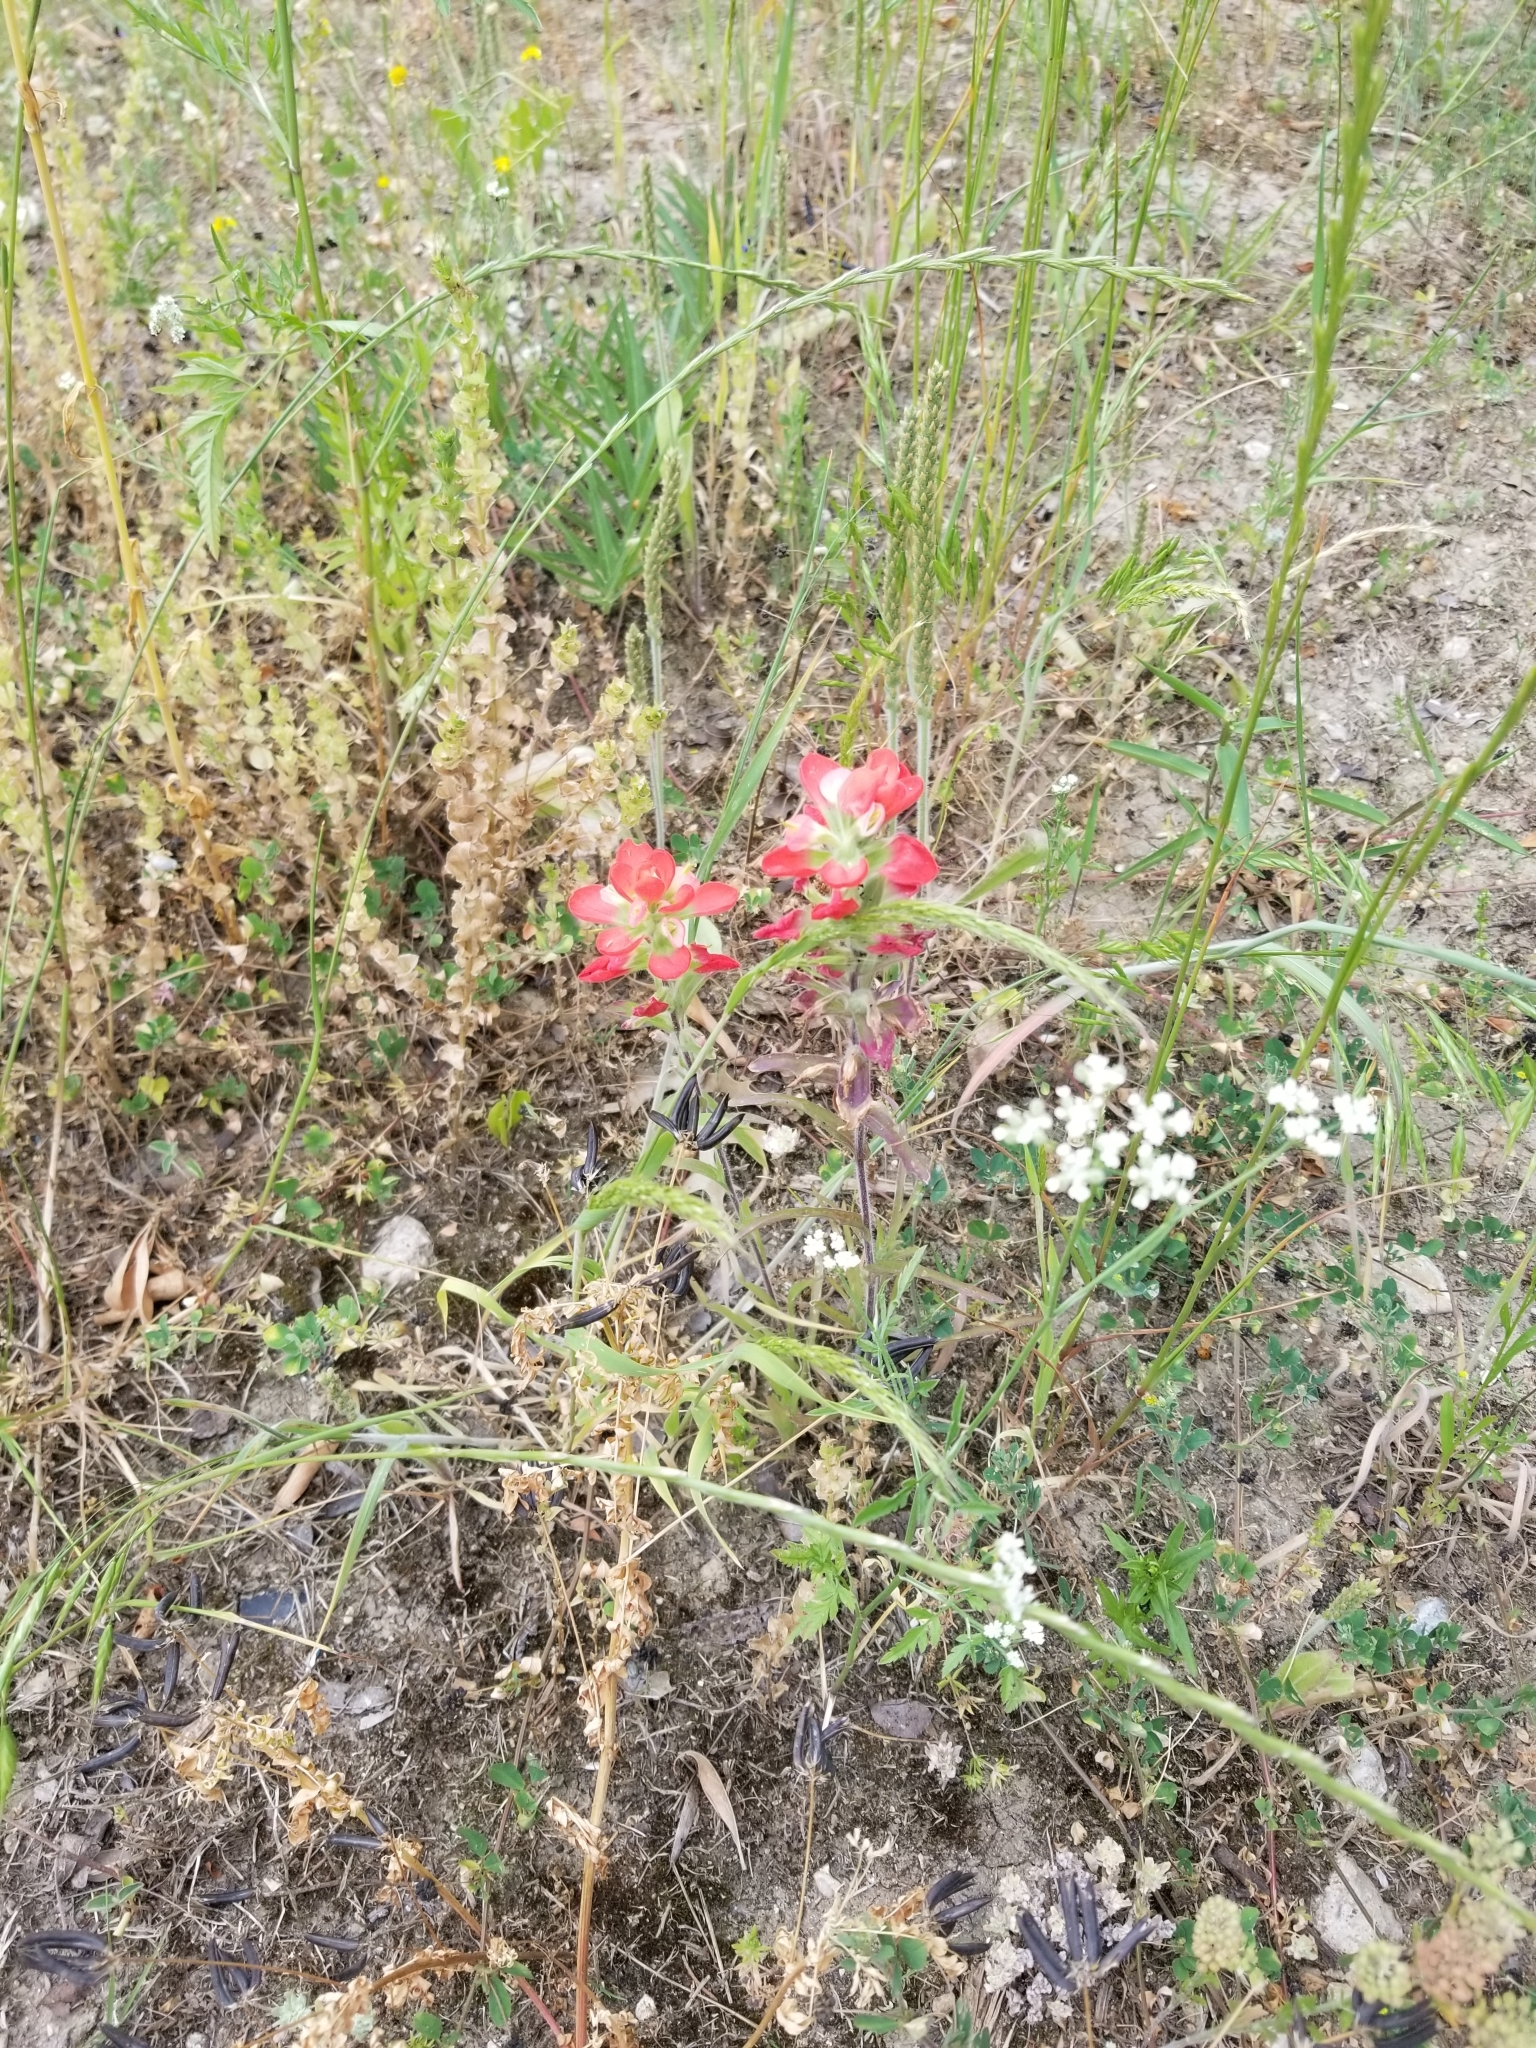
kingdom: Plantae
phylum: Tracheophyta
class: Magnoliopsida
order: Lamiales
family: Orobanchaceae
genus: Castilleja
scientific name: Castilleja indivisa
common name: Texas paintbrush
